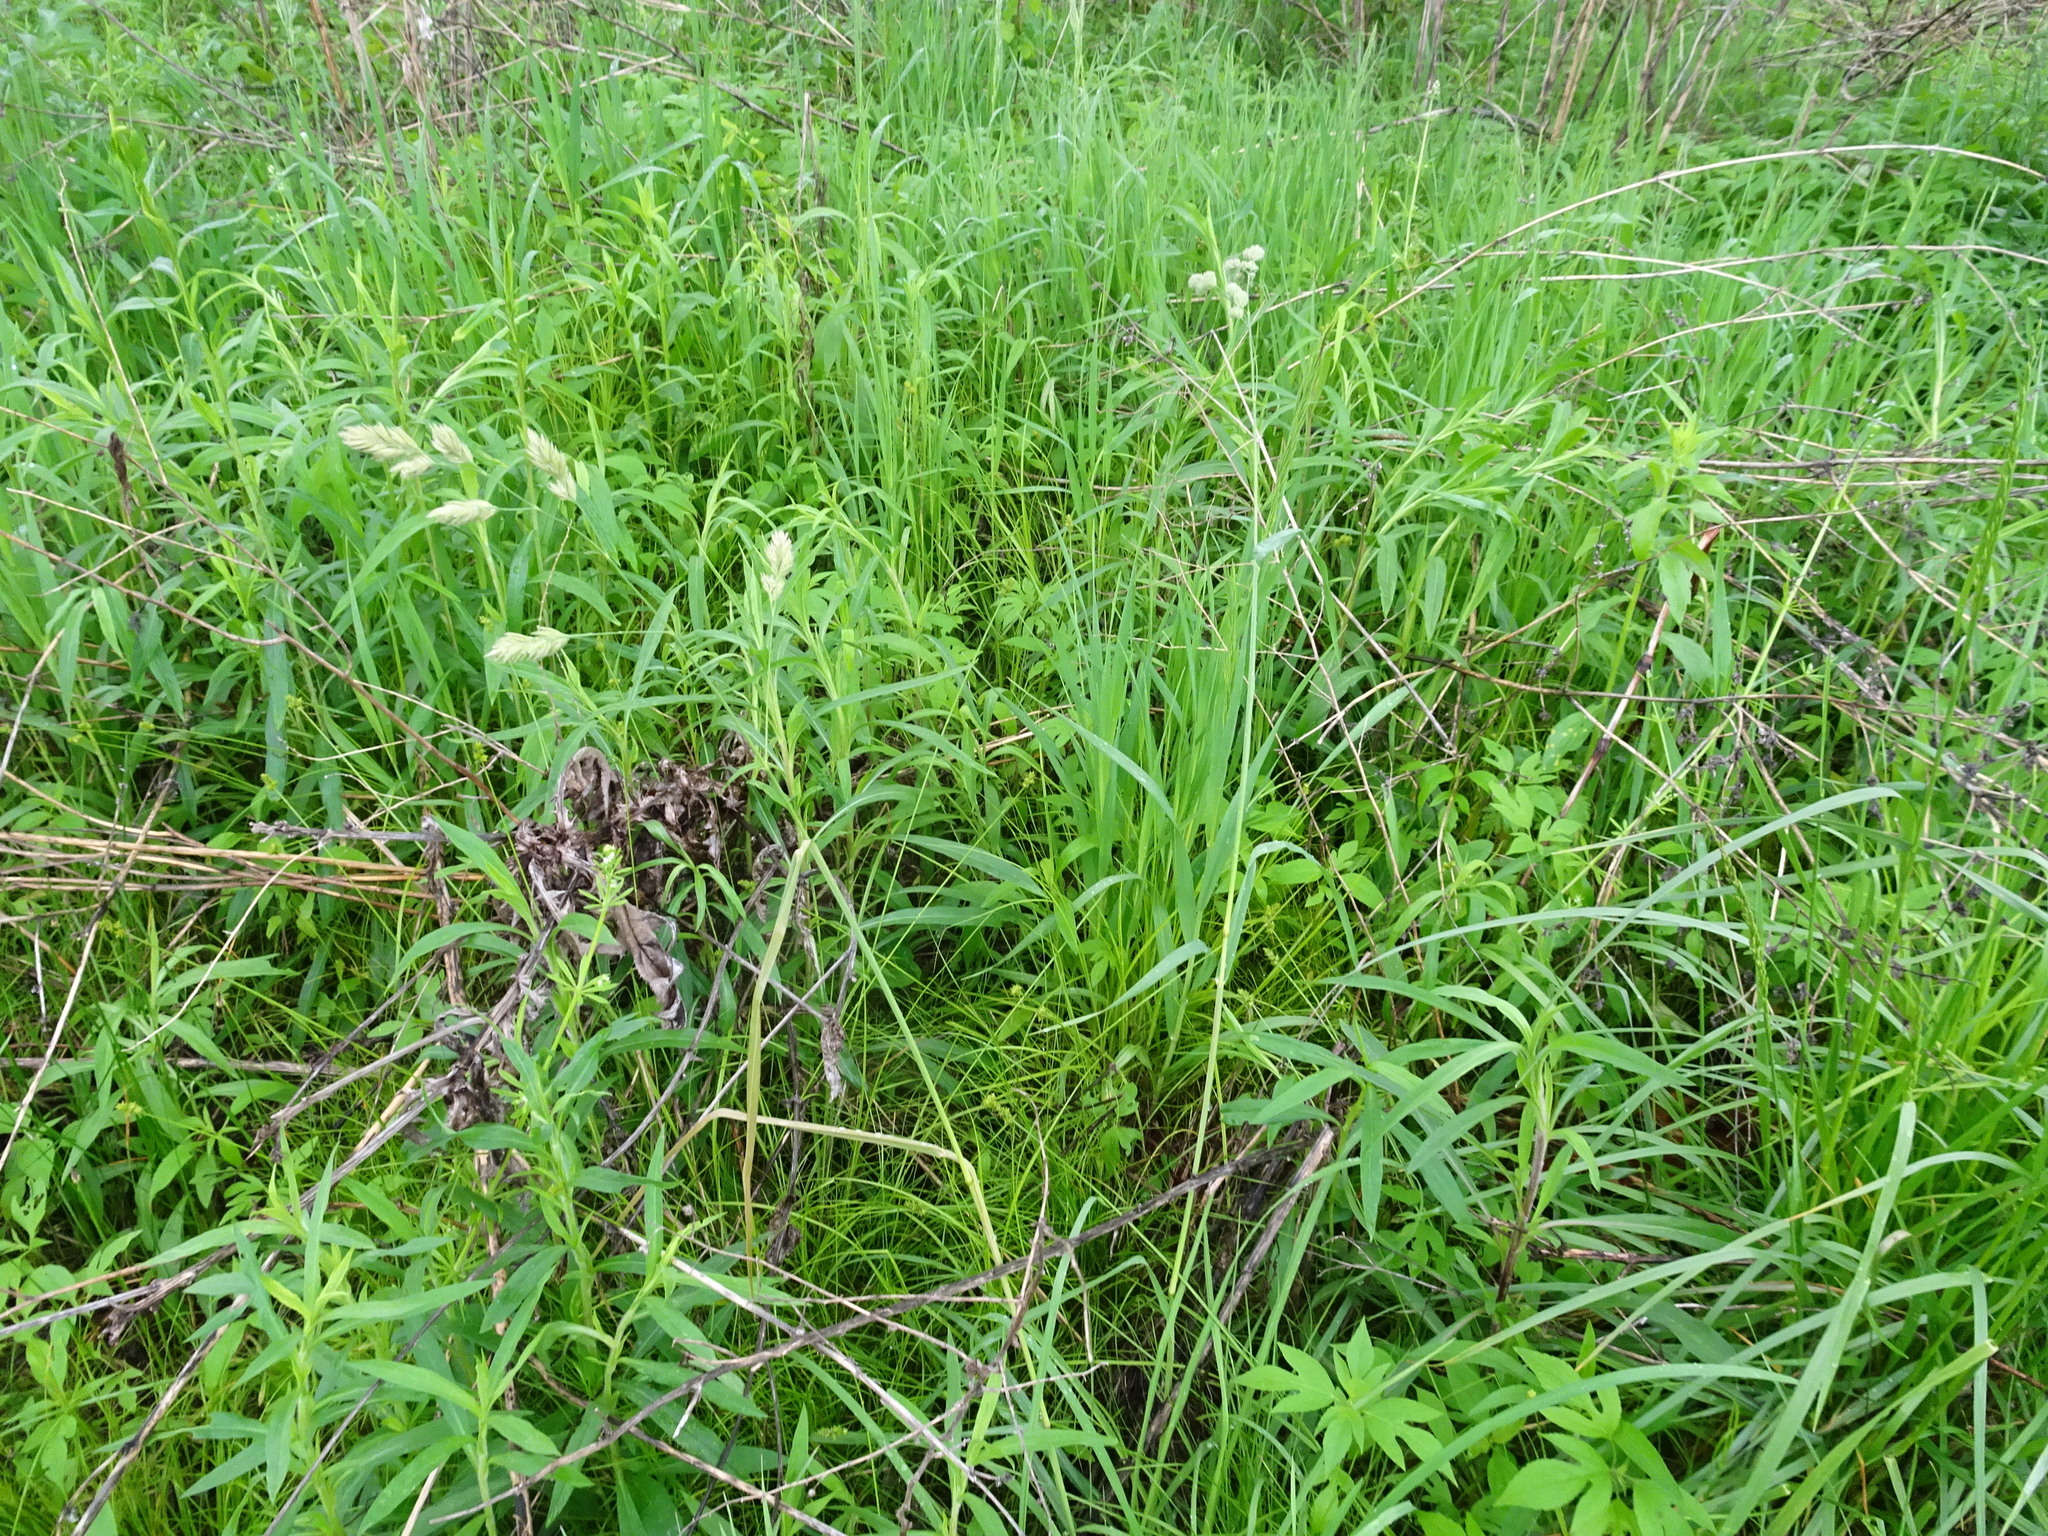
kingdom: Plantae
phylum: Tracheophyta
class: Liliopsida
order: Poales
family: Poaceae
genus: Dactylis
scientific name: Dactylis glomerata
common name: Orchardgrass
